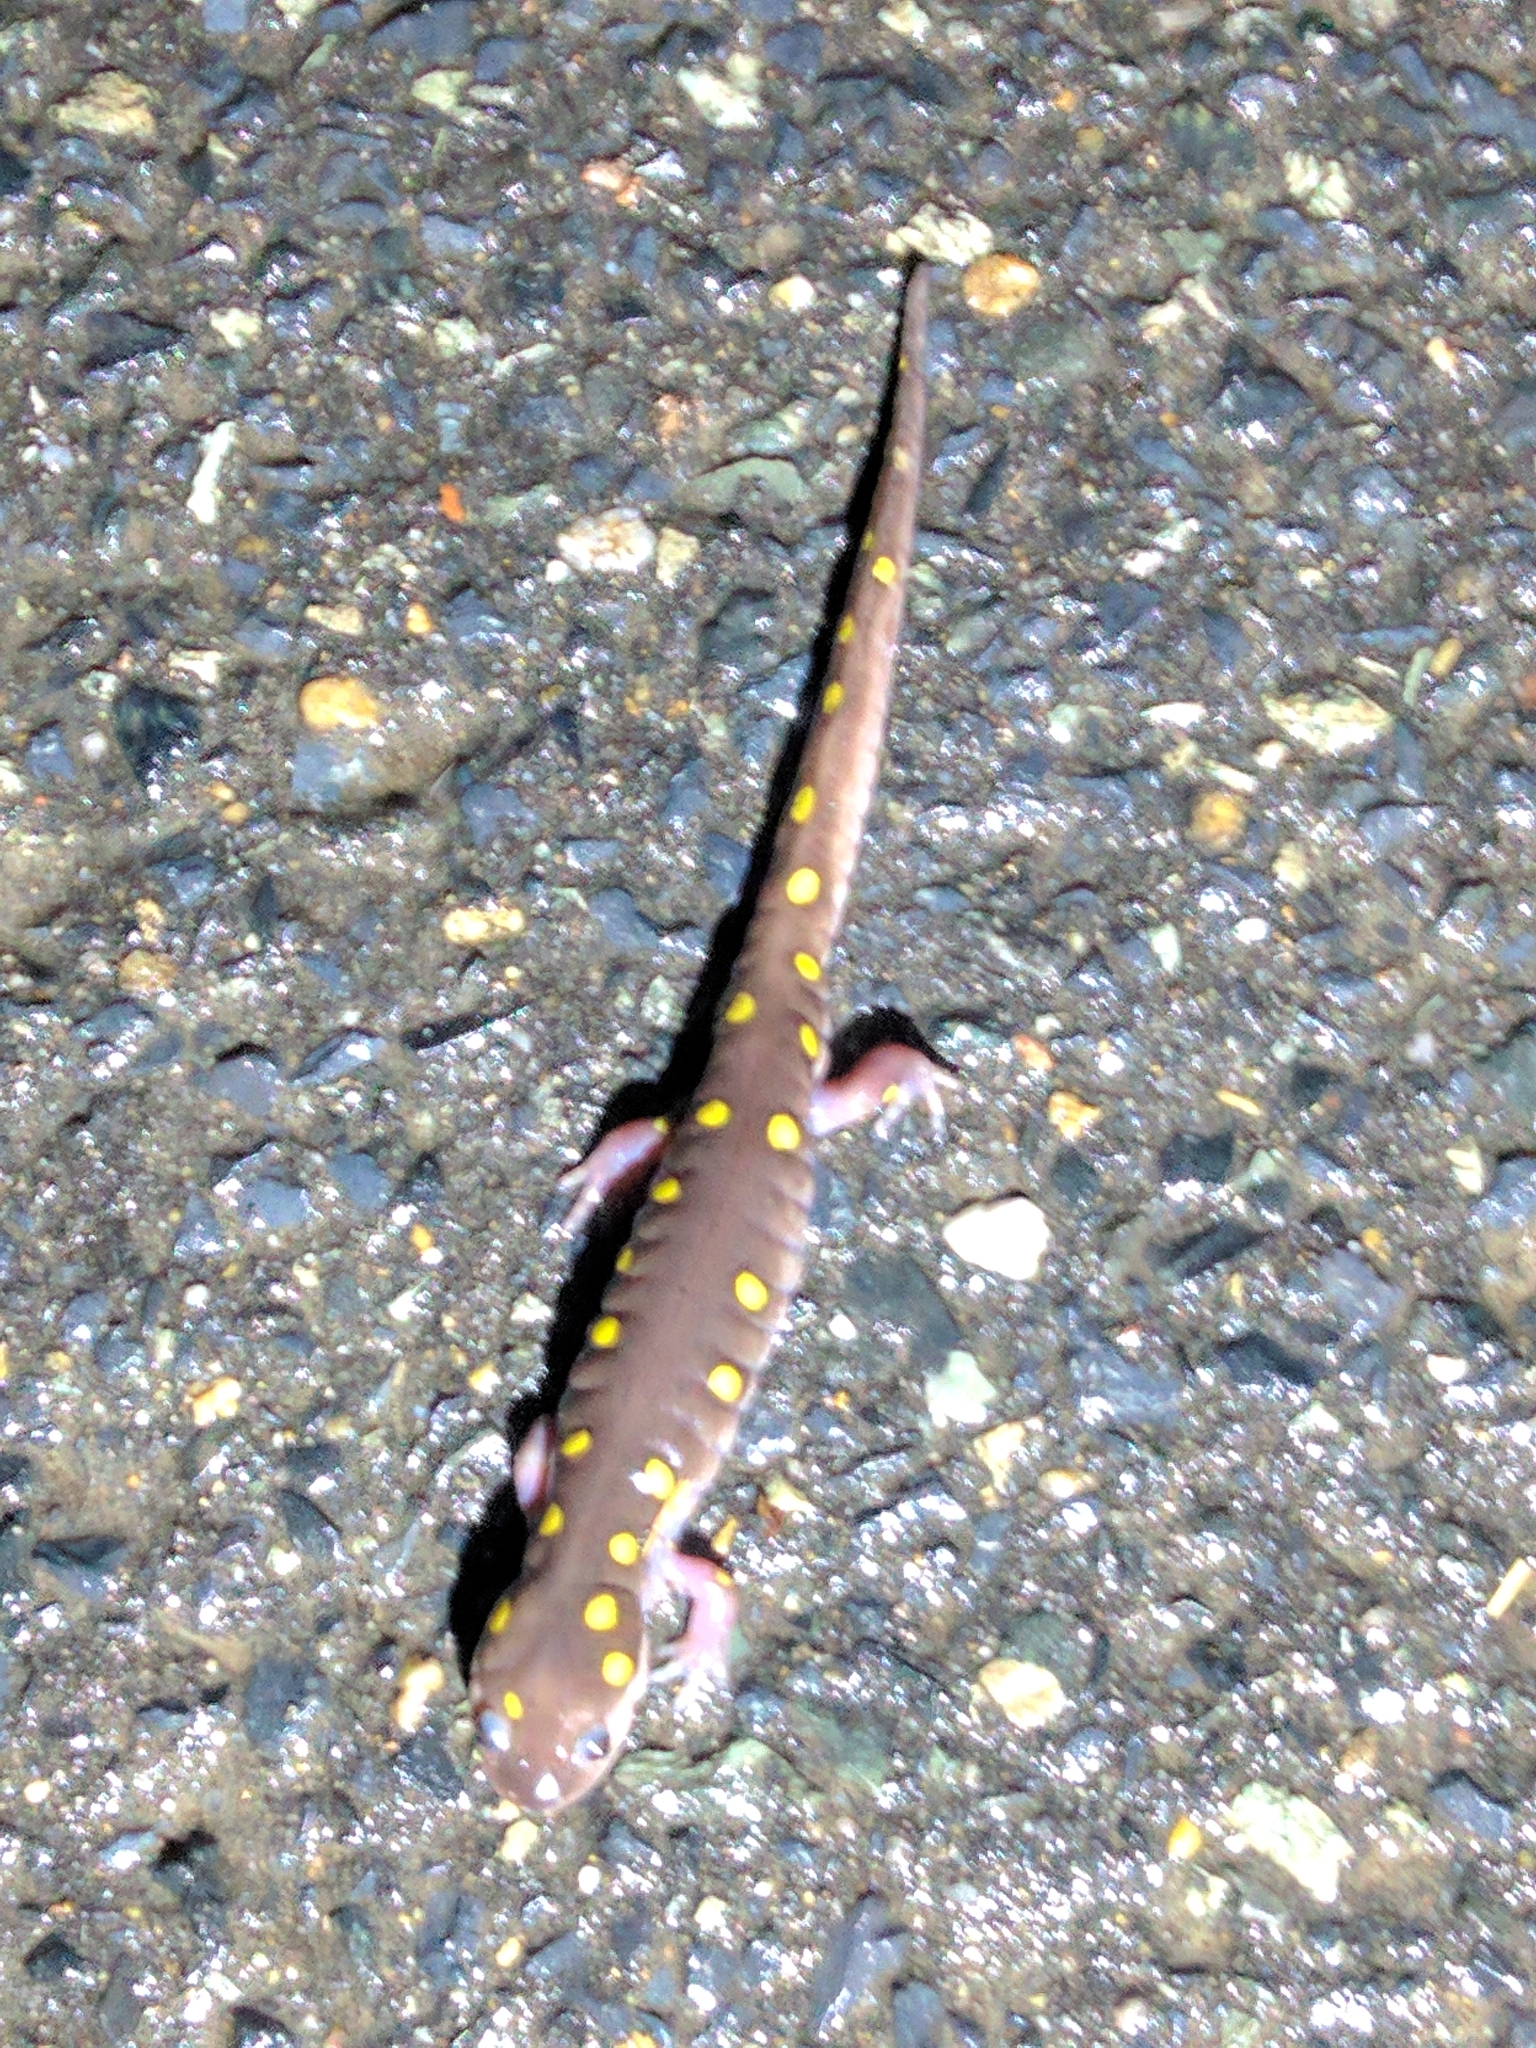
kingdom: Animalia
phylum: Chordata
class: Amphibia
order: Caudata
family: Ambystomatidae
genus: Ambystoma
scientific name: Ambystoma maculatum
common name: Spotted salamander
